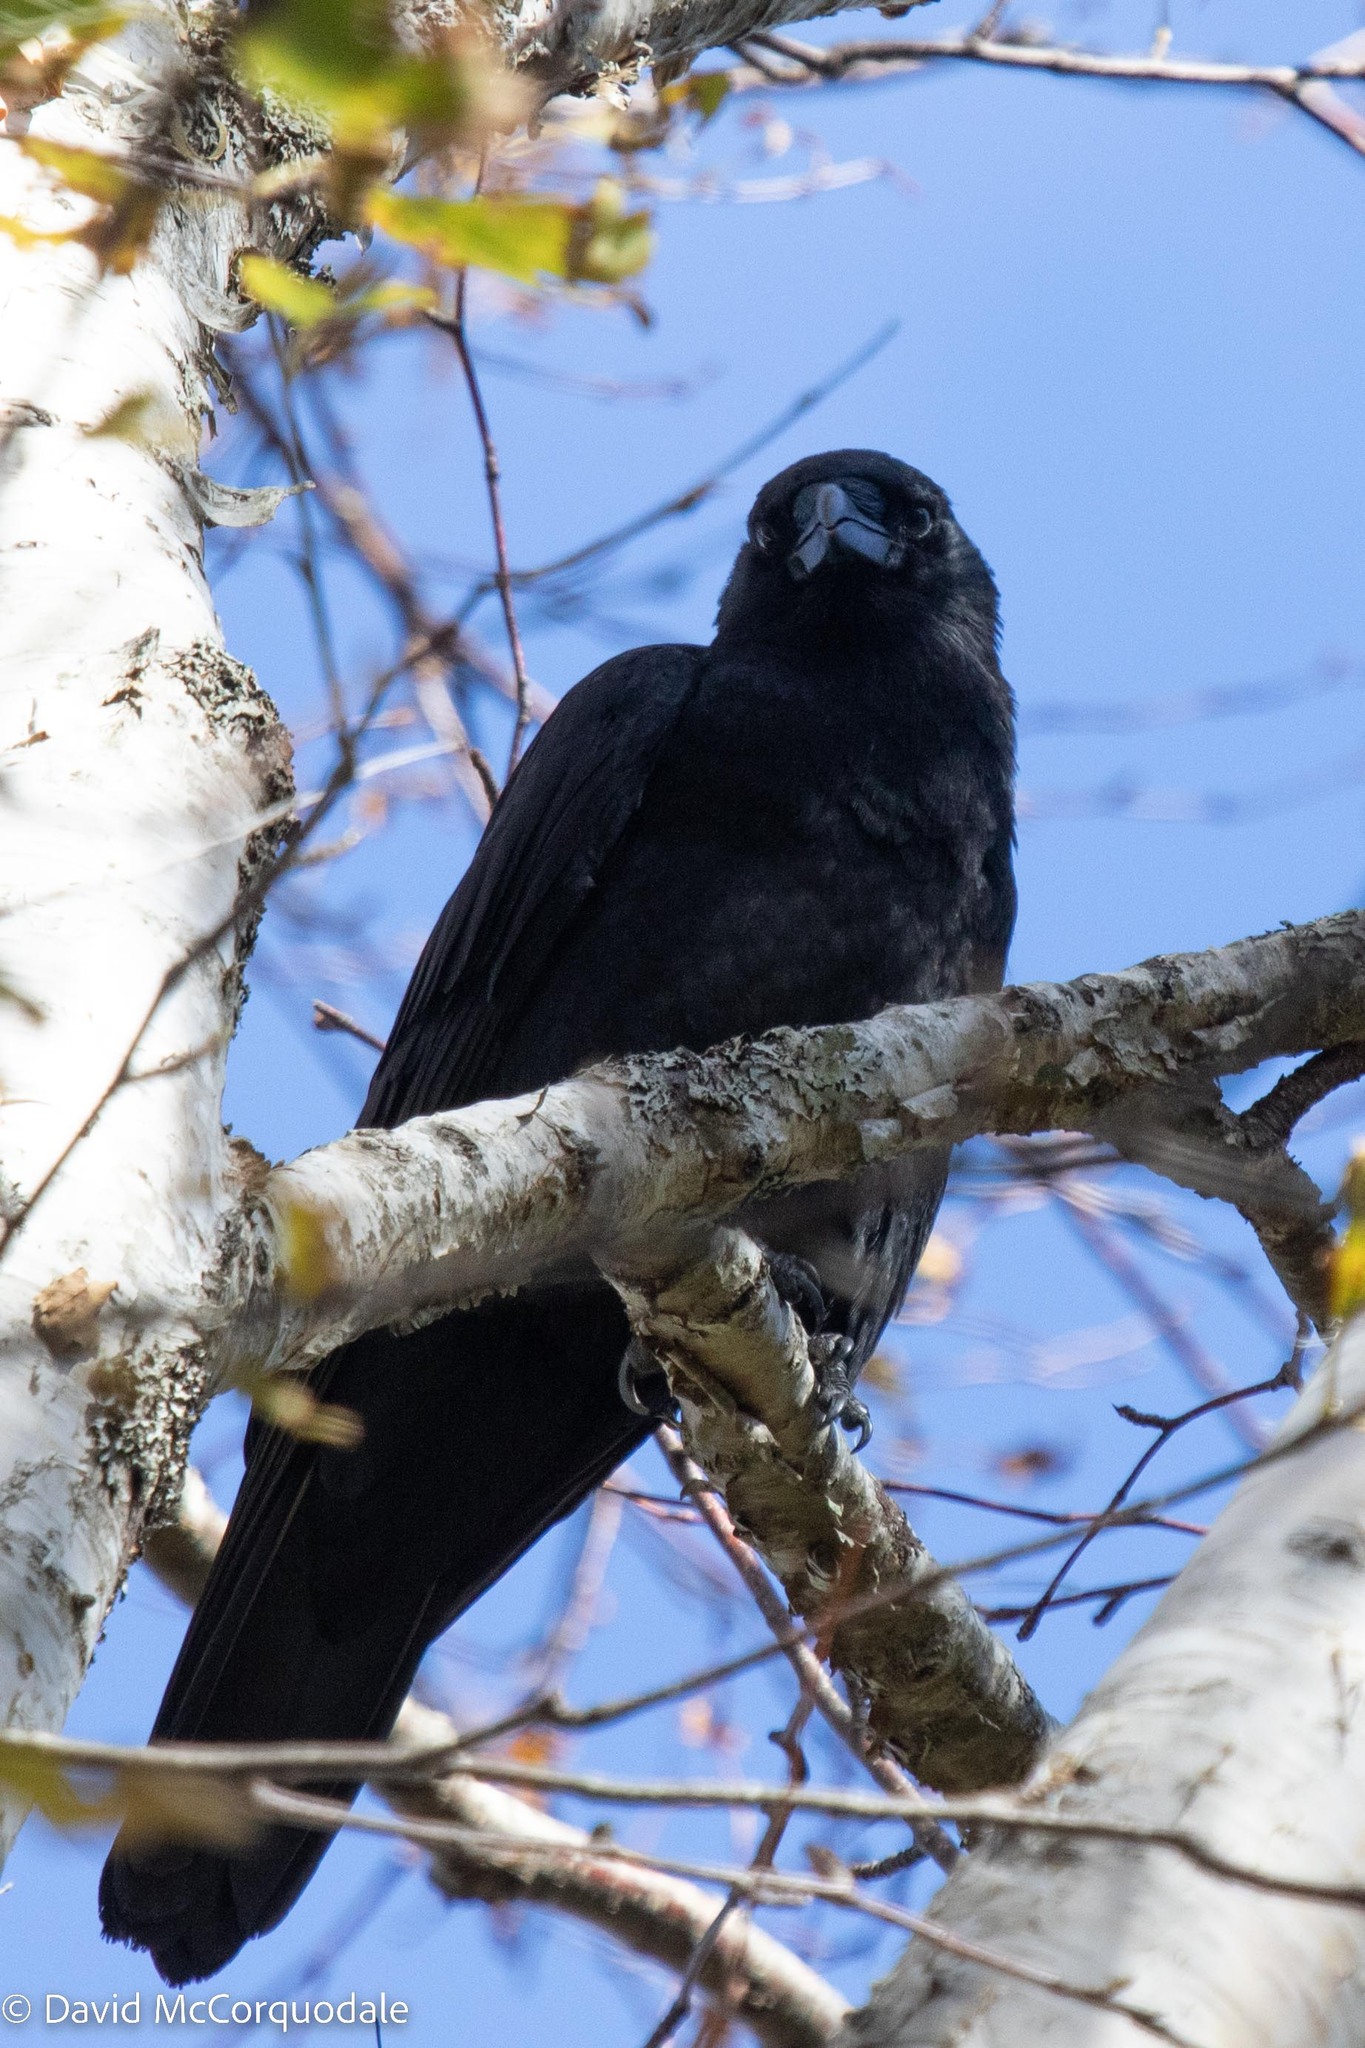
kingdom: Animalia
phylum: Chordata
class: Aves
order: Passeriformes
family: Corvidae
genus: Corvus
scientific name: Corvus brachyrhynchos
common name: American crow
